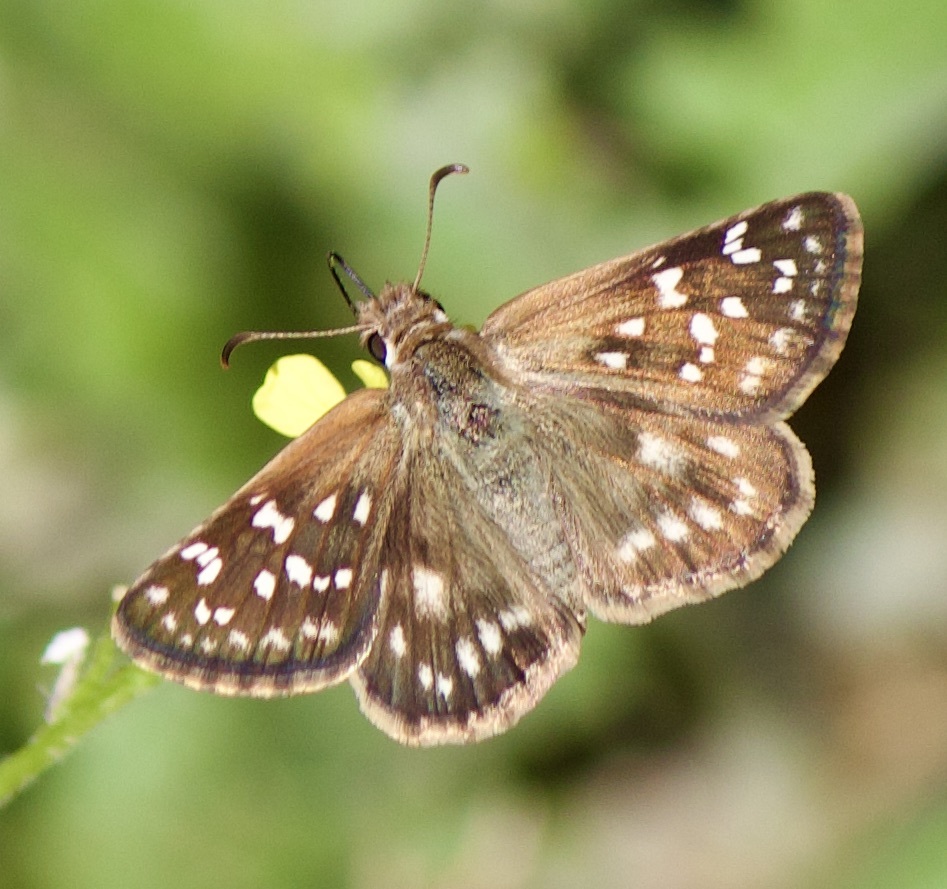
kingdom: Animalia
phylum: Arthropoda
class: Insecta
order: Lepidoptera
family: Hesperiidae
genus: Chirgus
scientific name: Chirgus fides
